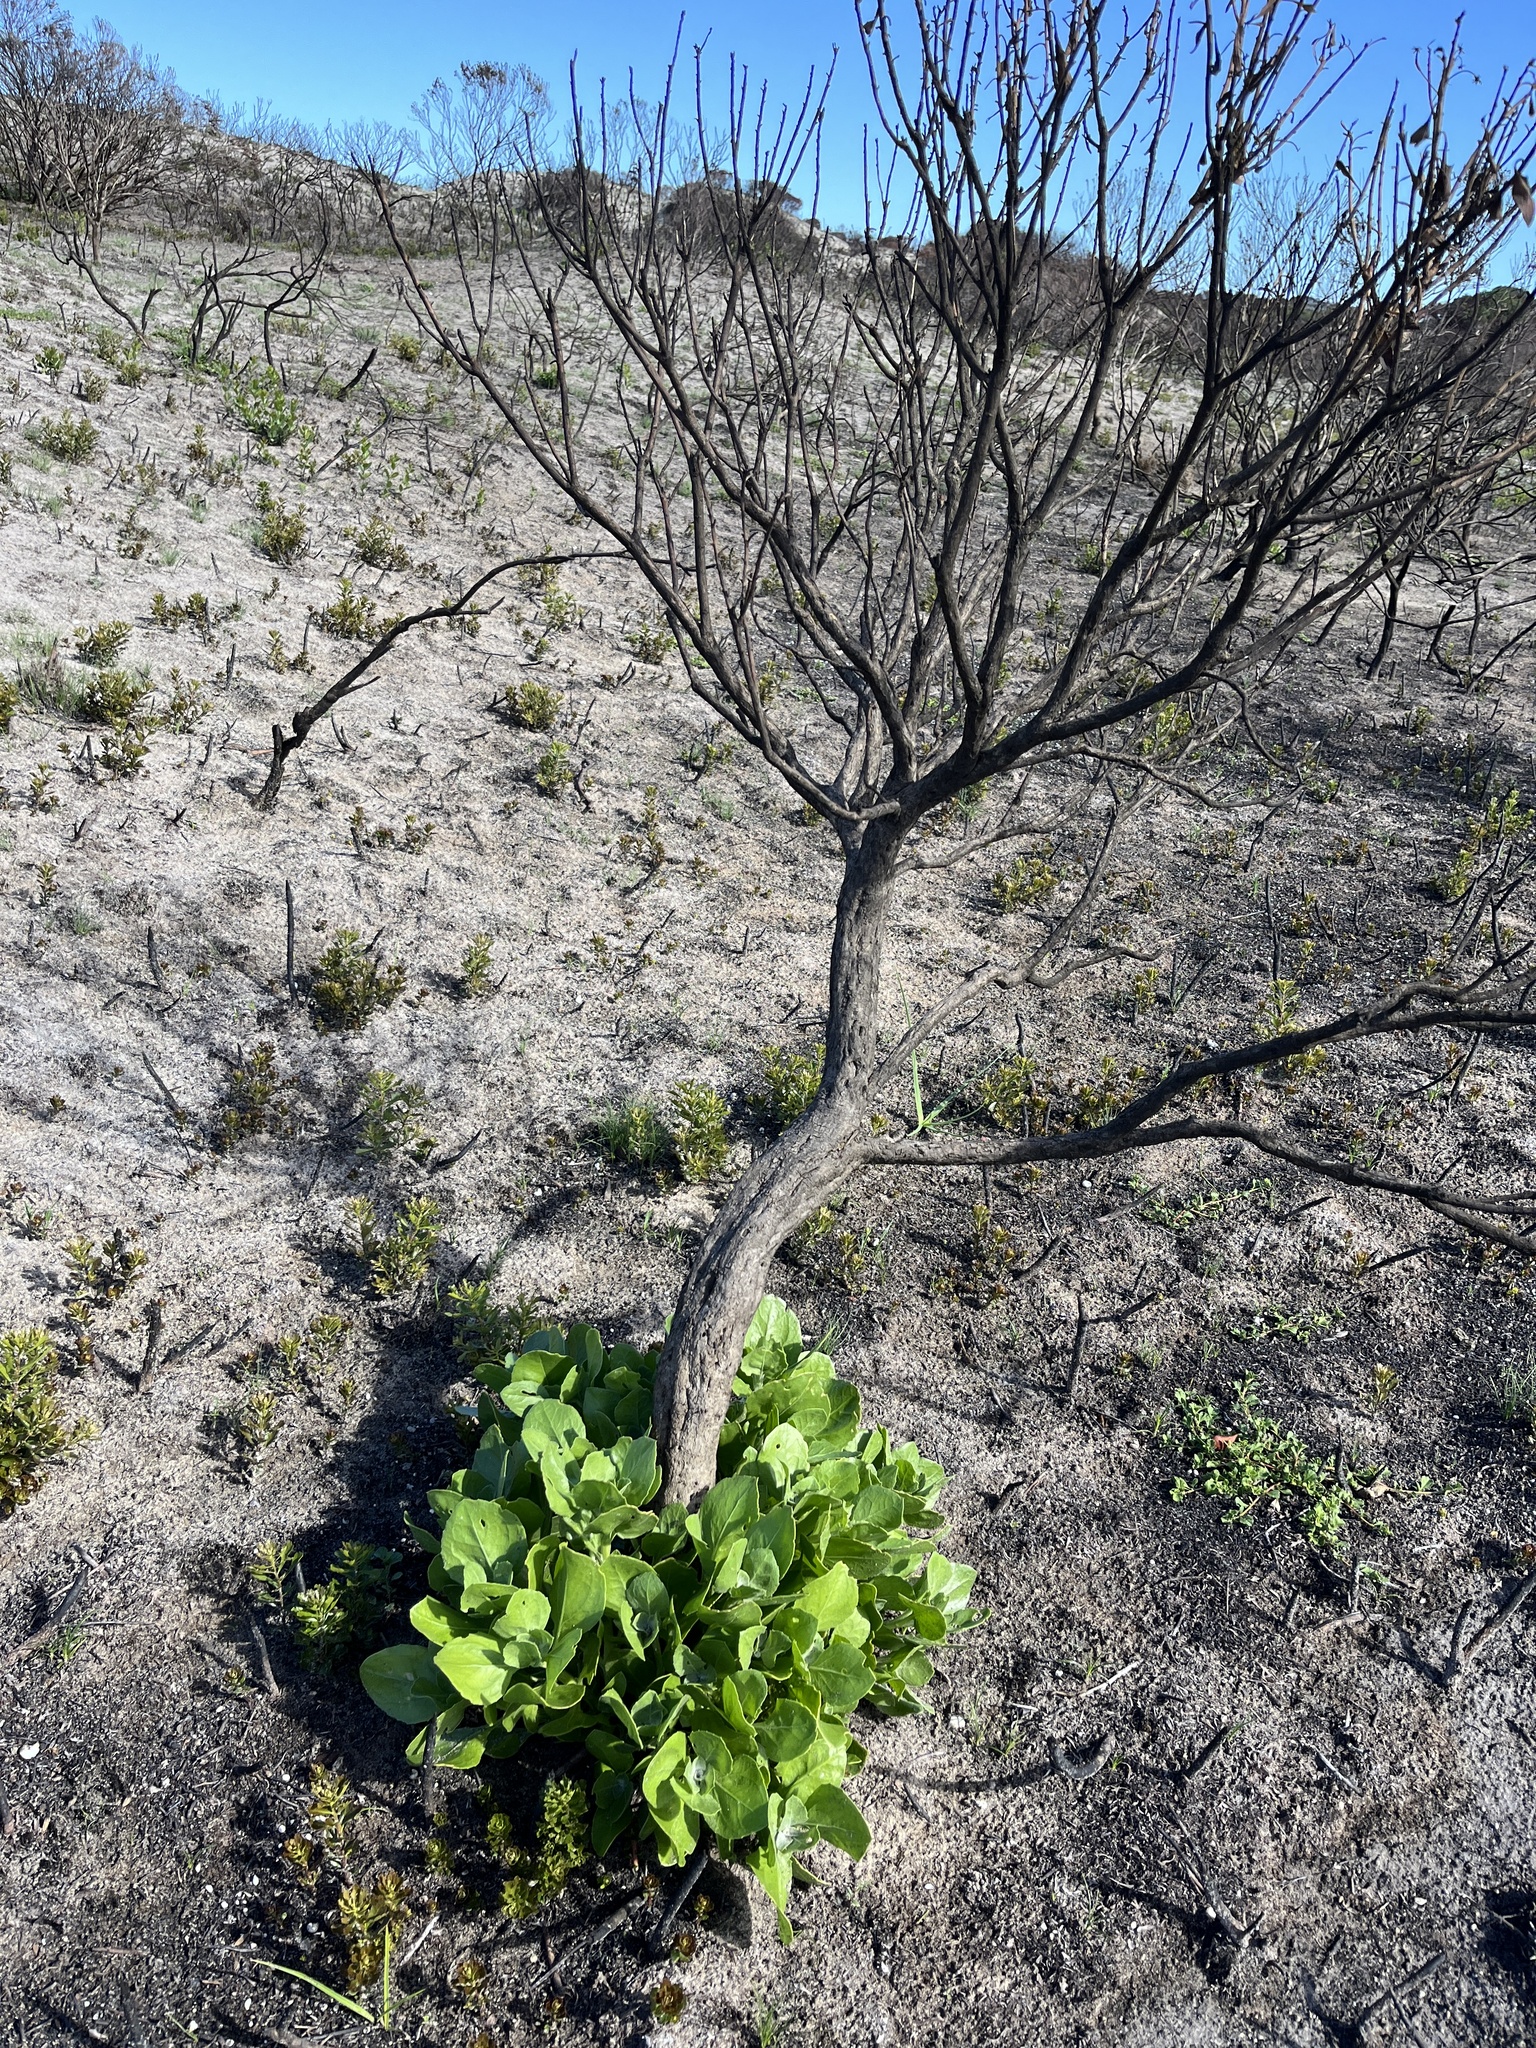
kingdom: Plantae
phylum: Tracheophyta
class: Magnoliopsida
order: Asterales
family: Asteraceae
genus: Osteospermum
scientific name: Osteospermum moniliferum
